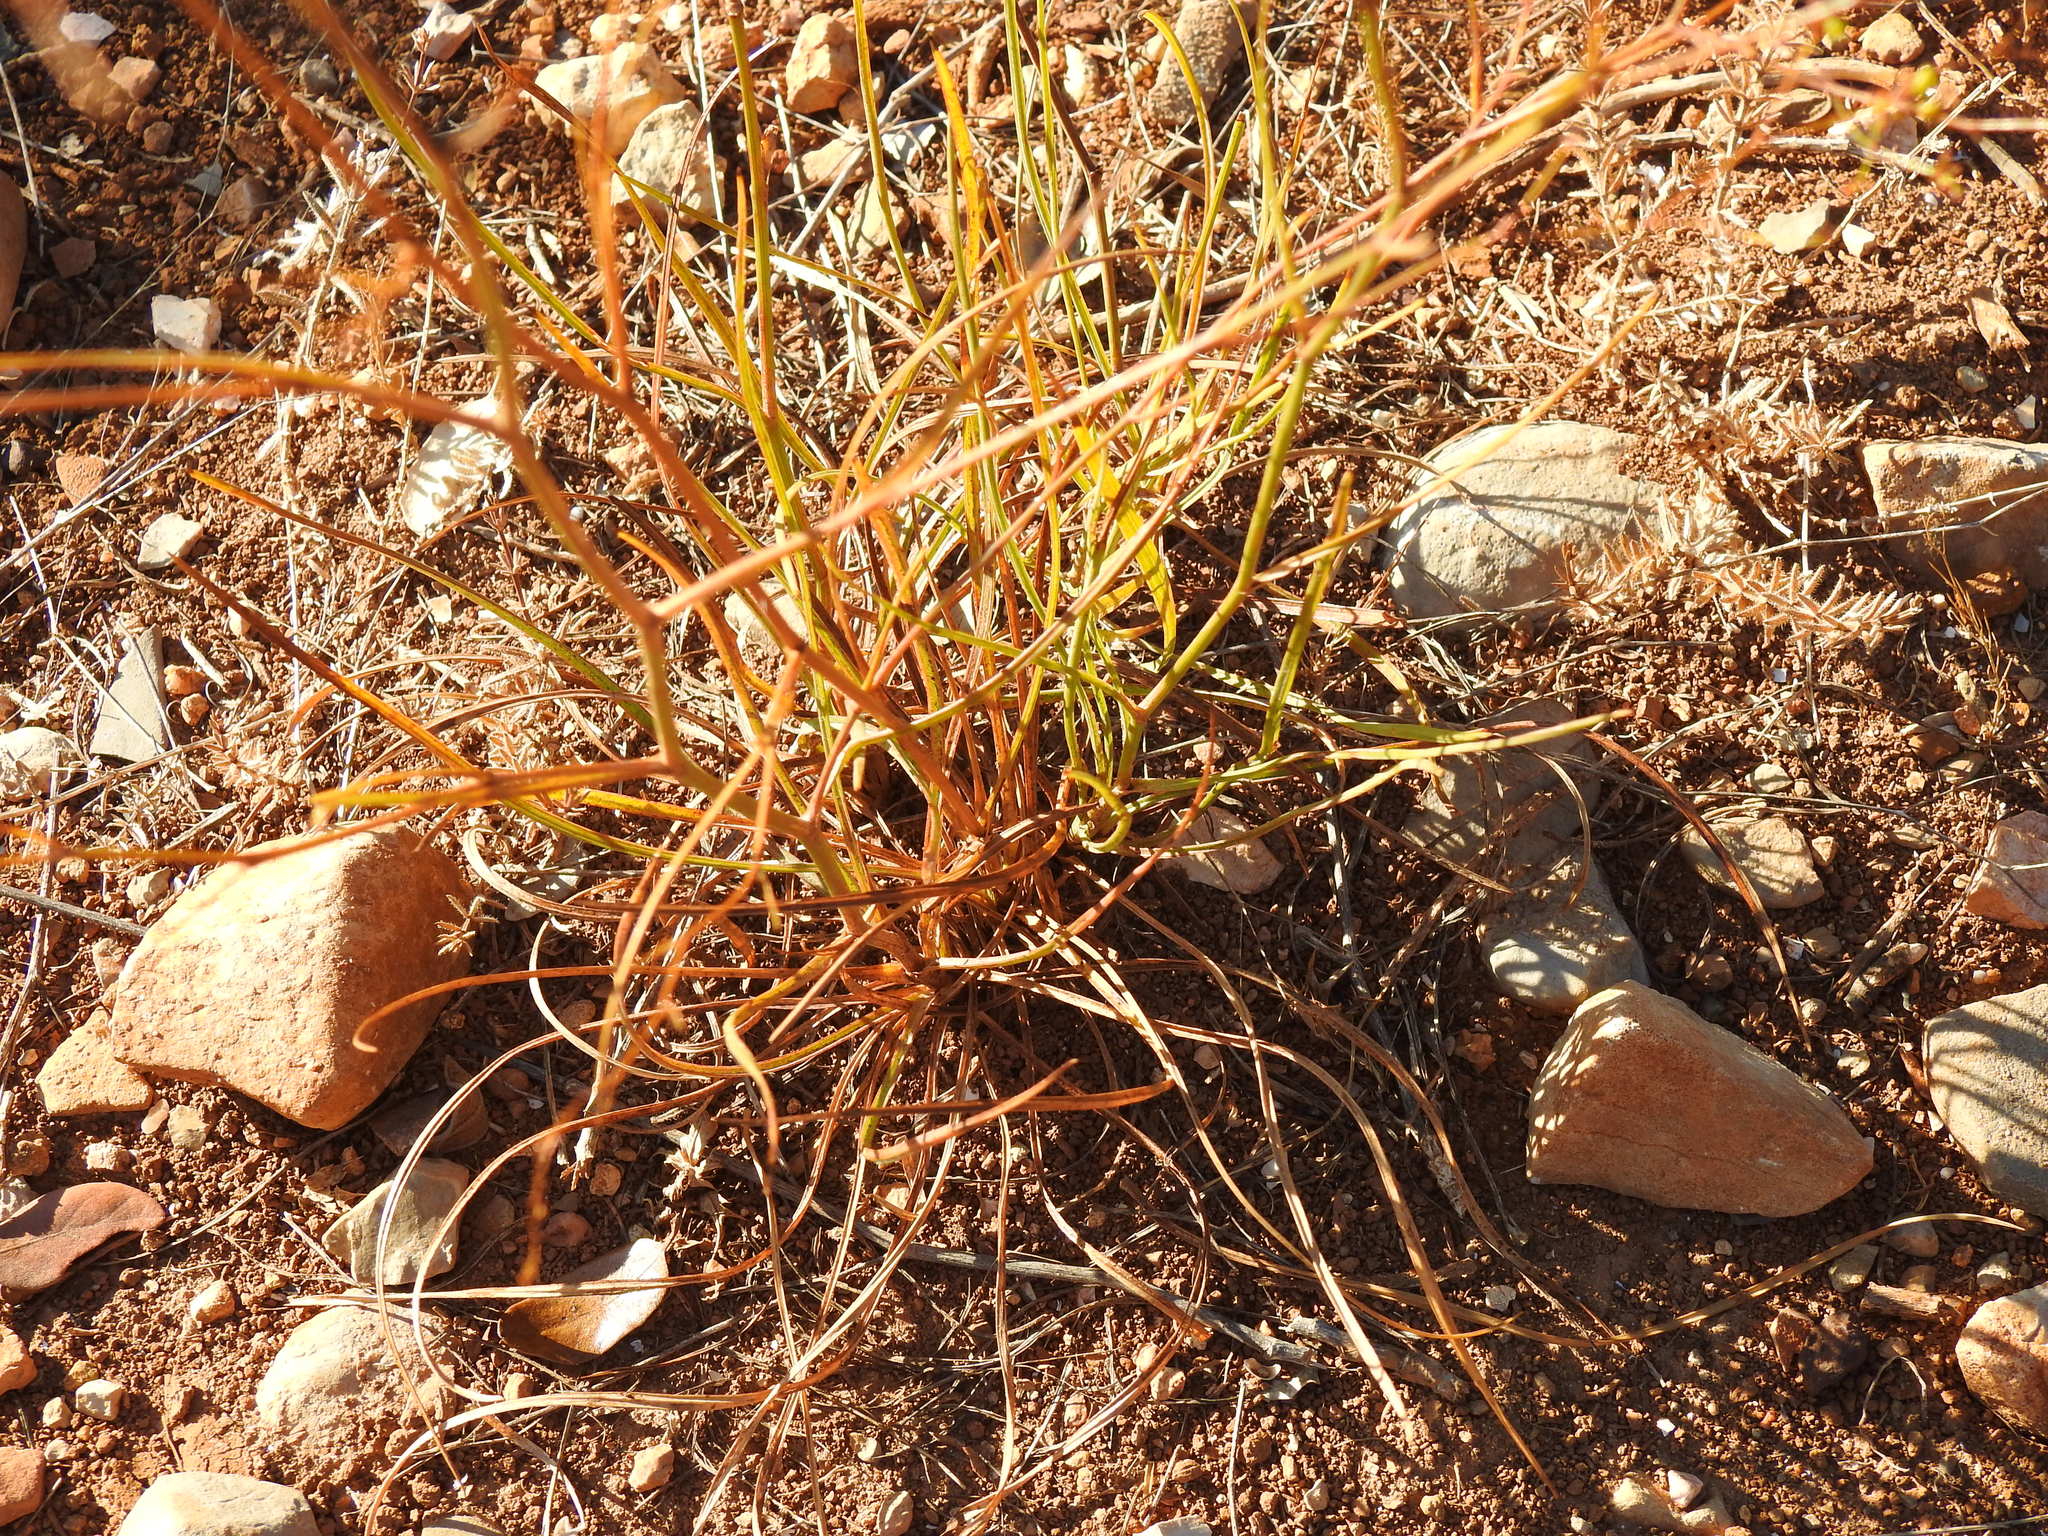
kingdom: Plantae
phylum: Tracheophyta
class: Magnoliopsida
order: Apiales
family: Apiaceae
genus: Bupleurum
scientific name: Bupleurum rigidum
